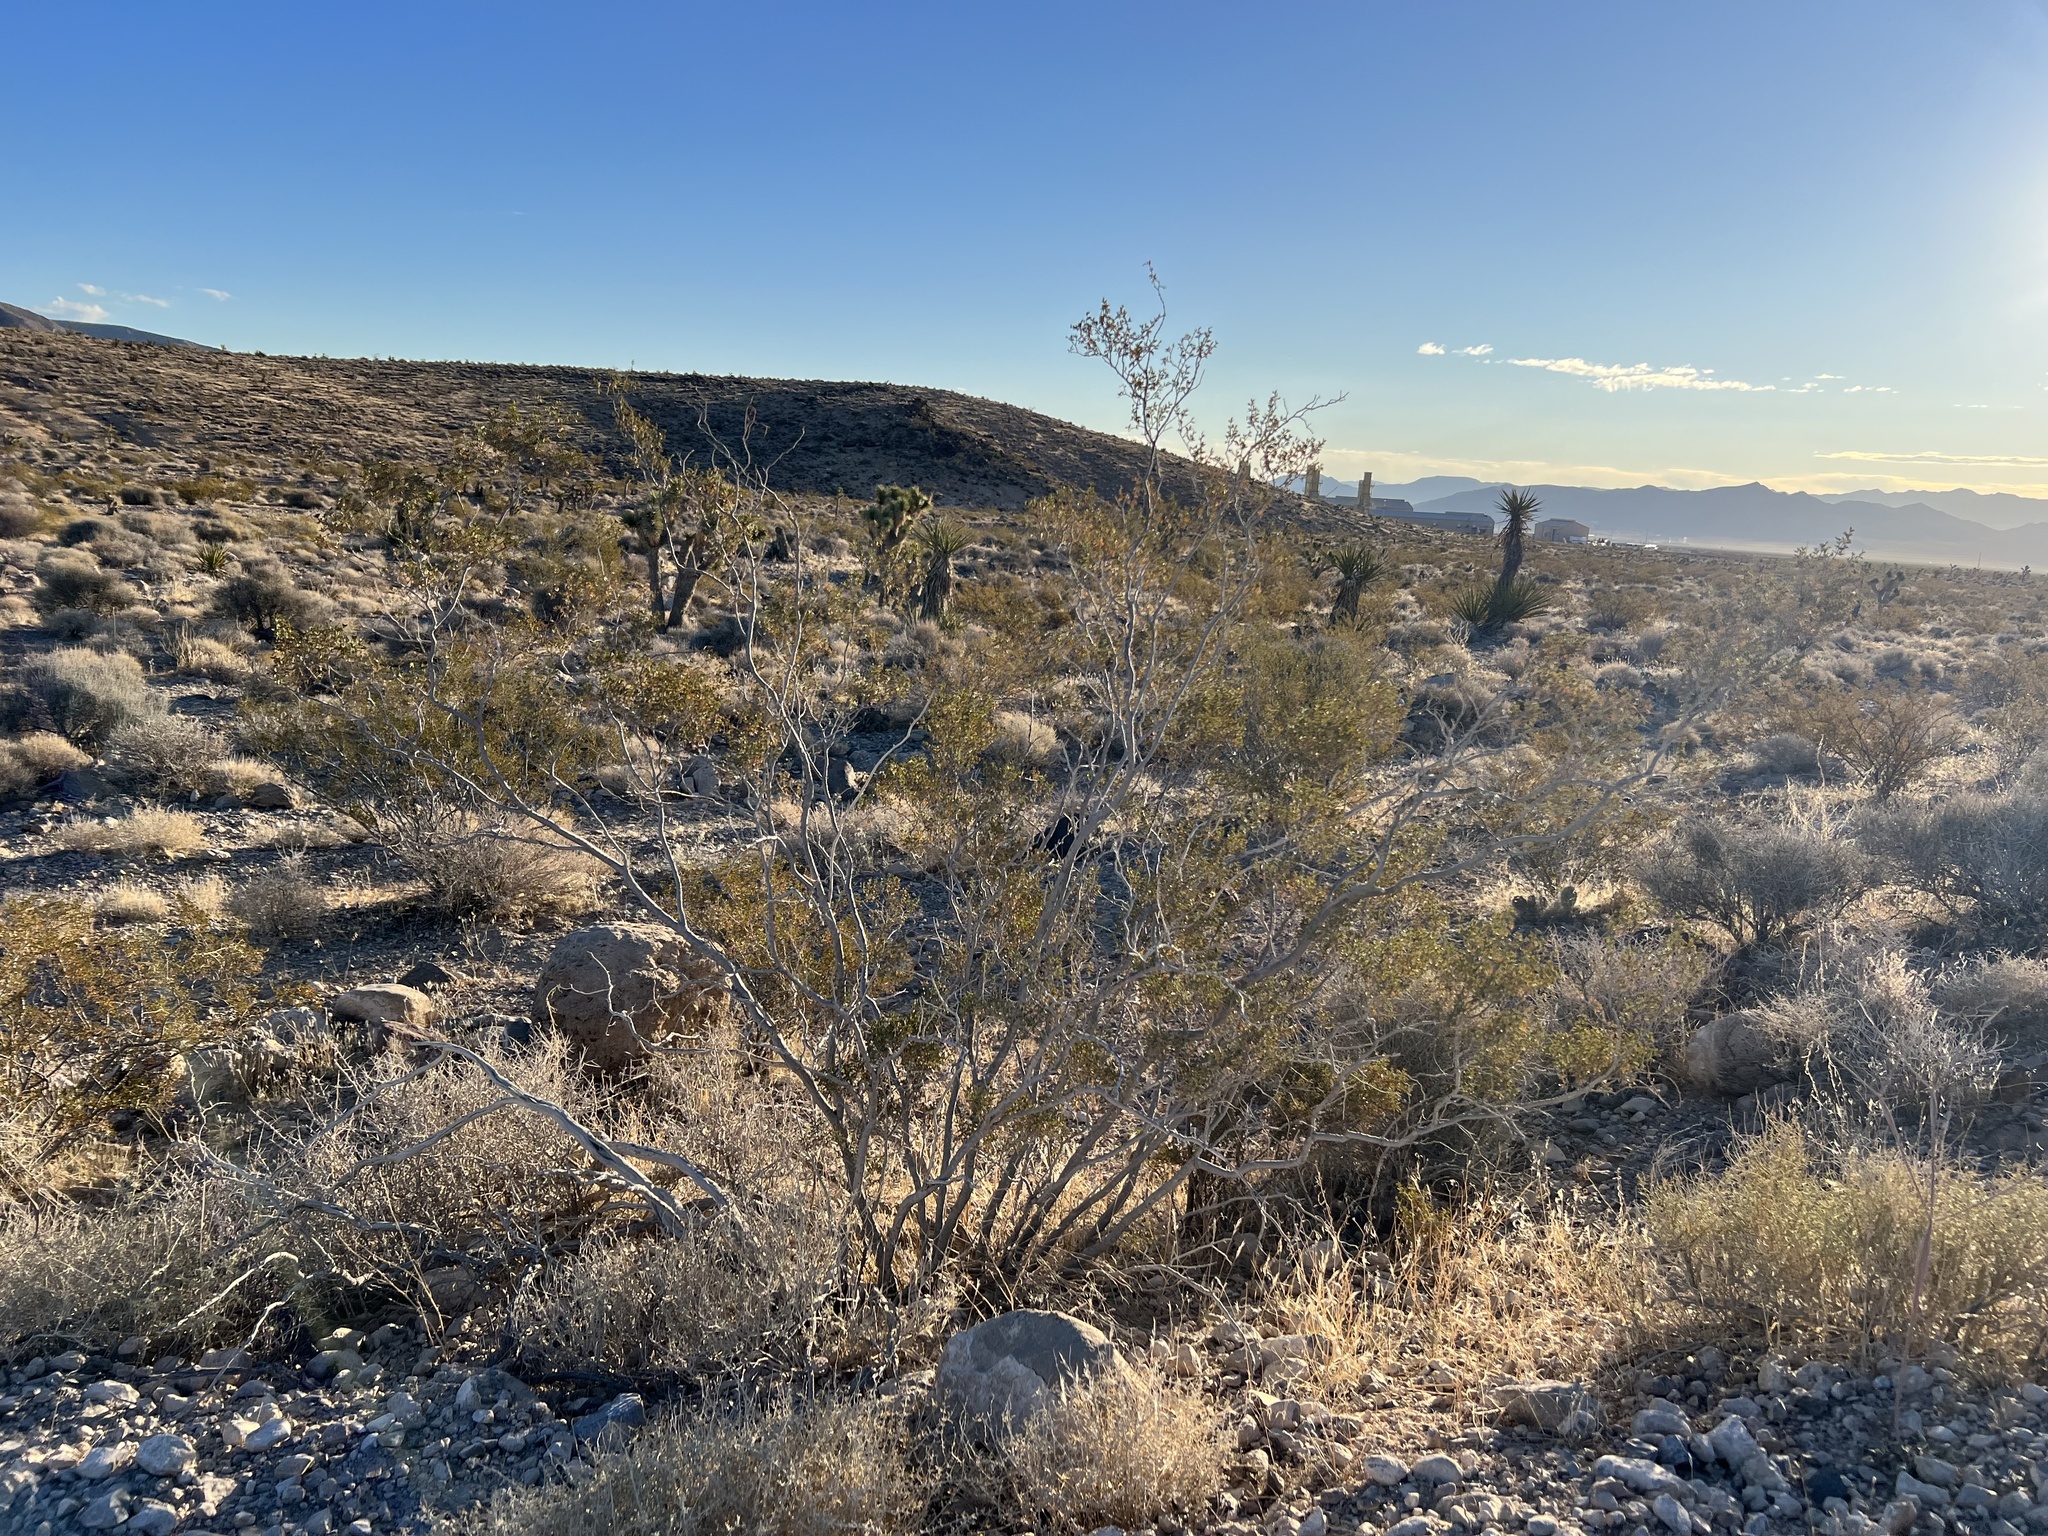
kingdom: Plantae
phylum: Tracheophyta
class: Magnoliopsida
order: Zygophyllales
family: Zygophyllaceae
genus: Larrea
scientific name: Larrea tridentata
